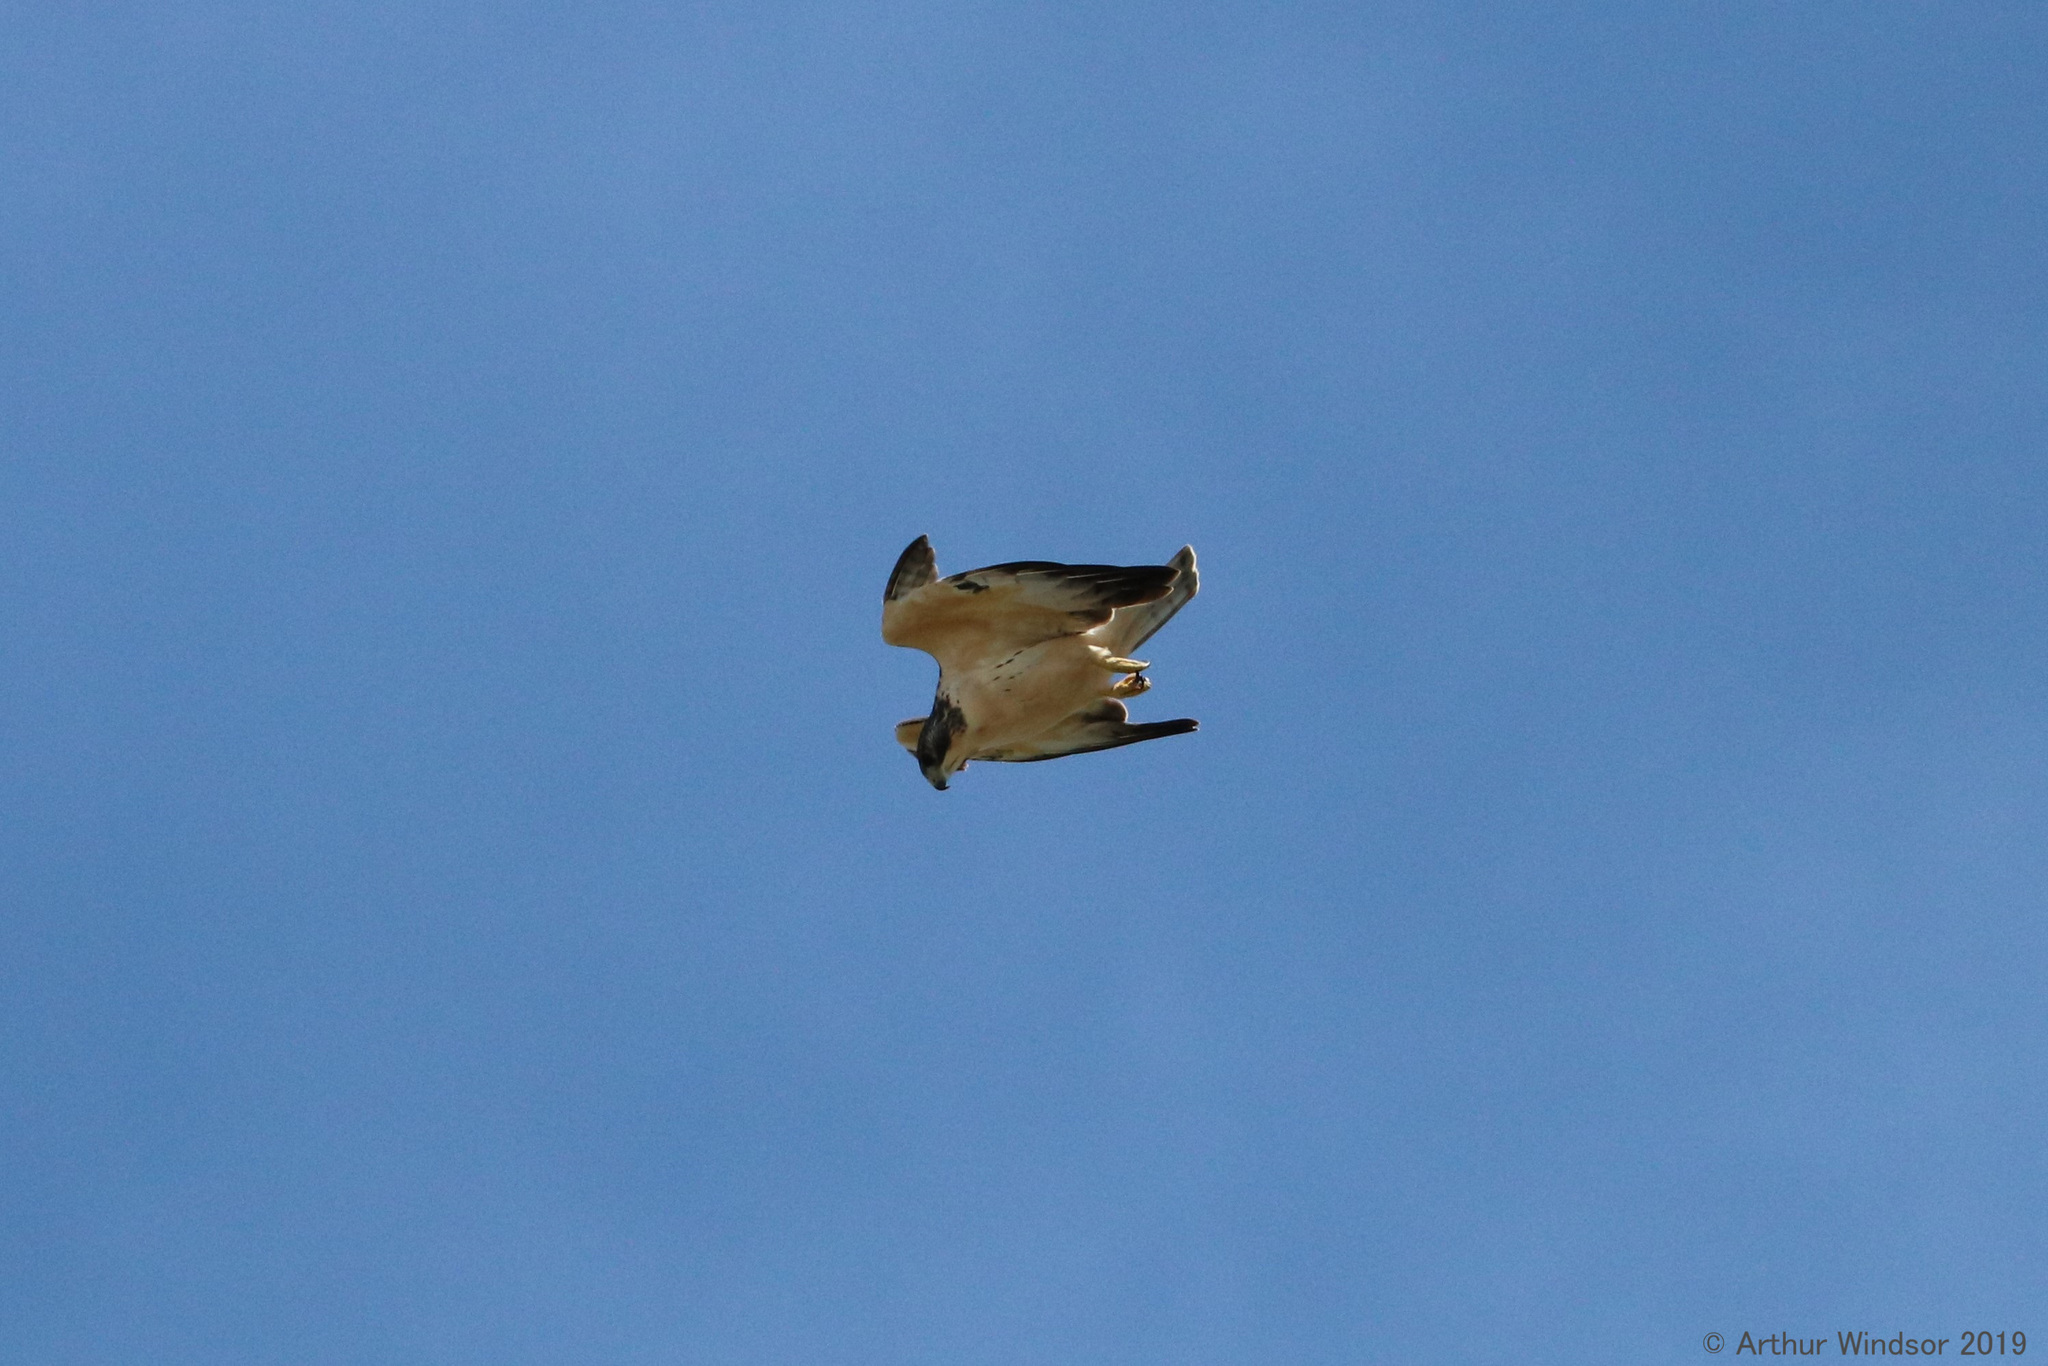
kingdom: Animalia
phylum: Chordata
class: Aves
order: Accipitriformes
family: Accipitridae
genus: Buteo
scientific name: Buteo brachyurus
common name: Short-tailed hawk
